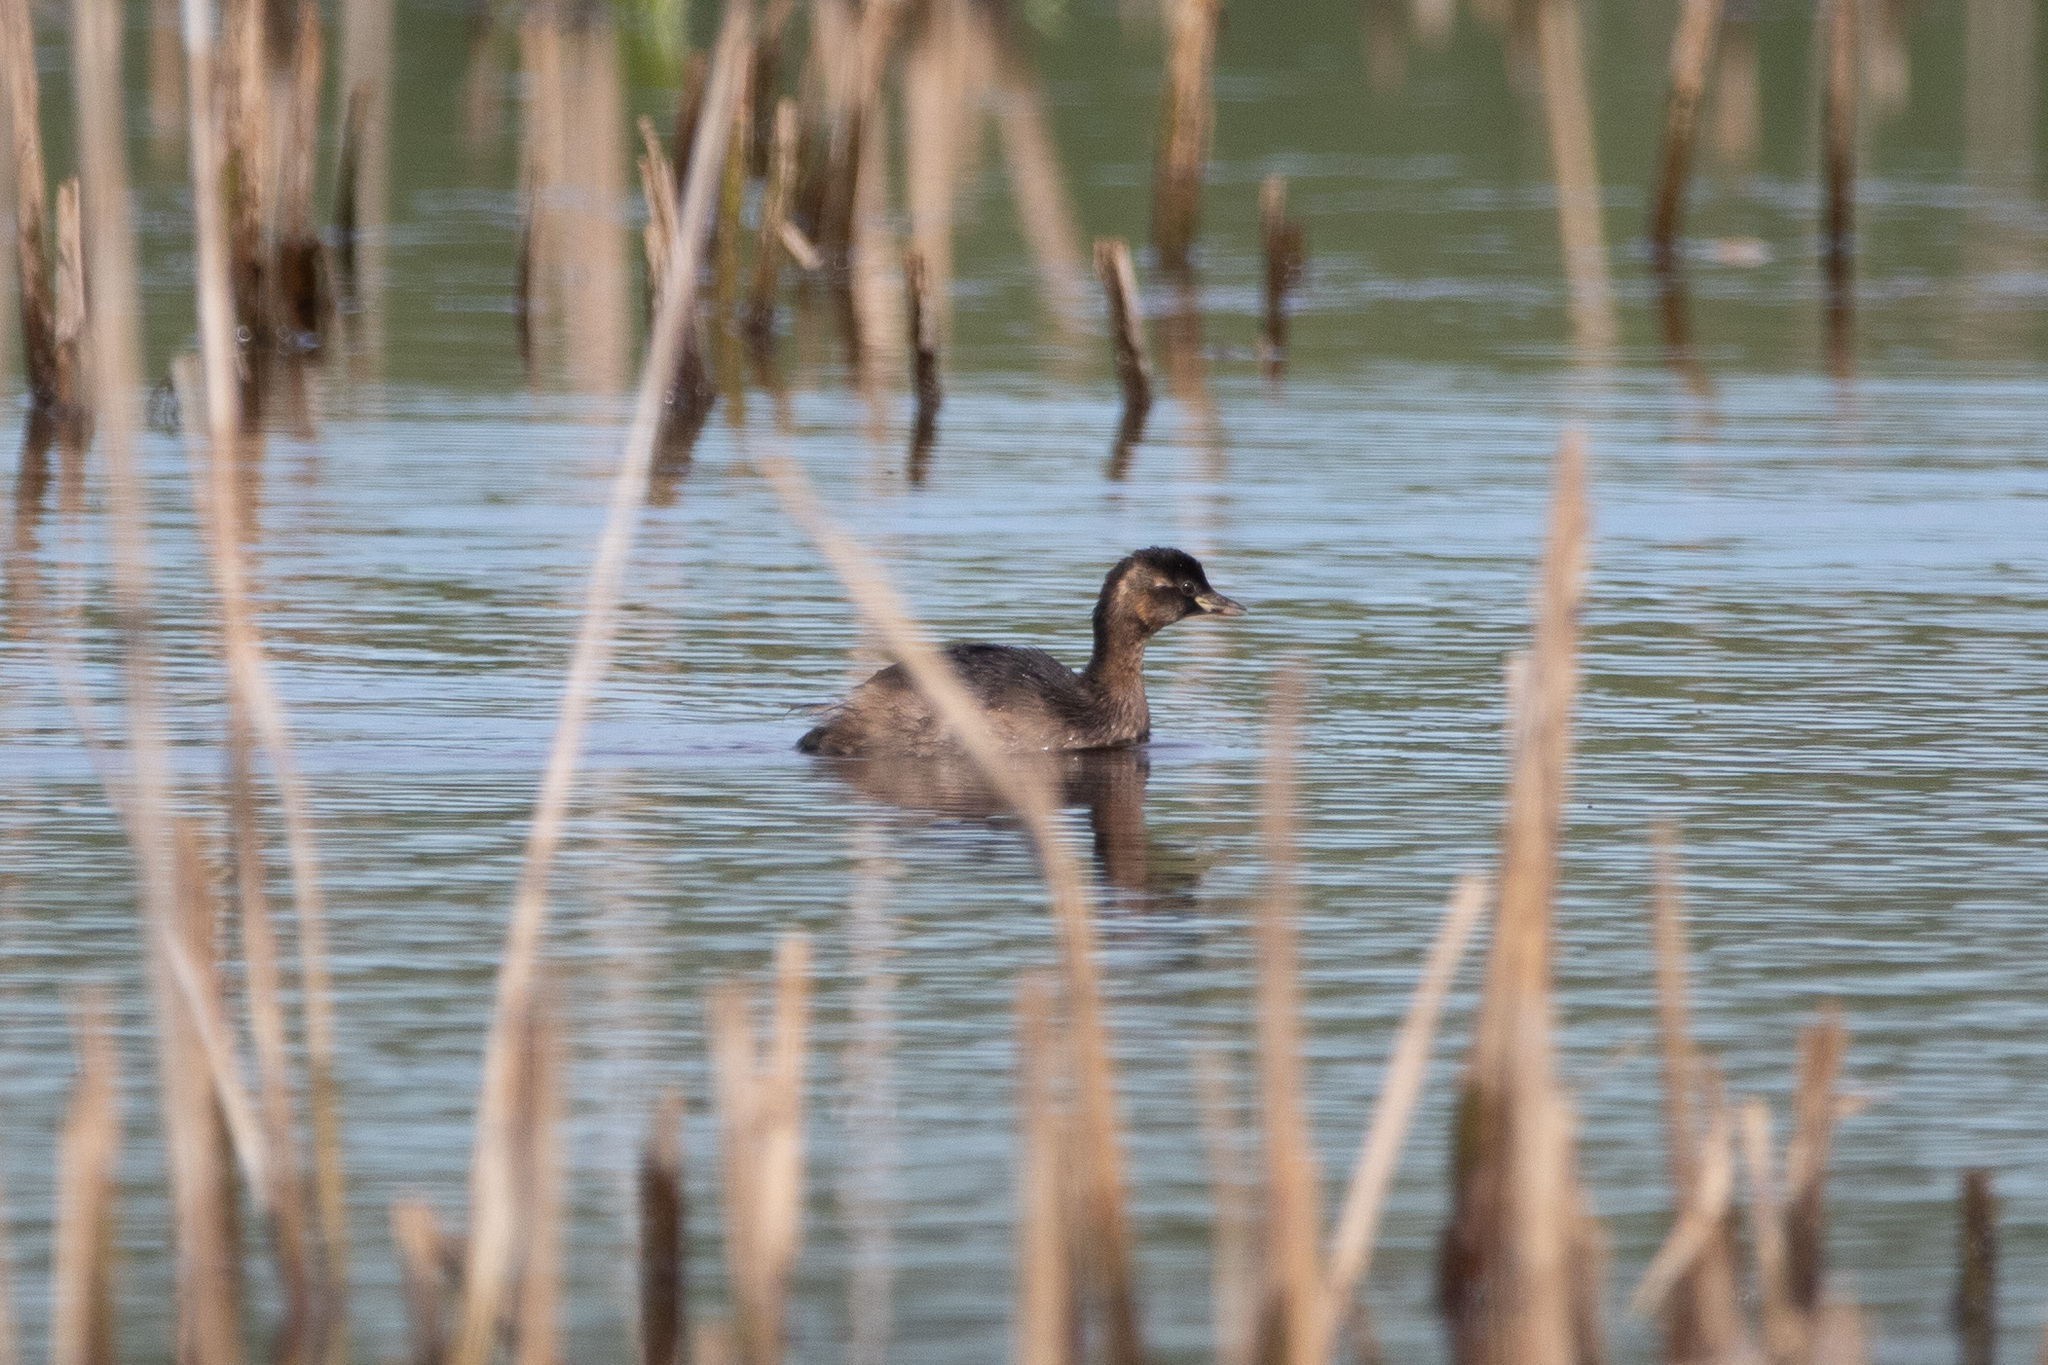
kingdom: Animalia
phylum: Chordata
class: Aves
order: Podicipediformes
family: Podicipedidae
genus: Tachybaptus
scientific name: Tachybaptus ruficollis
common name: Little grebe
